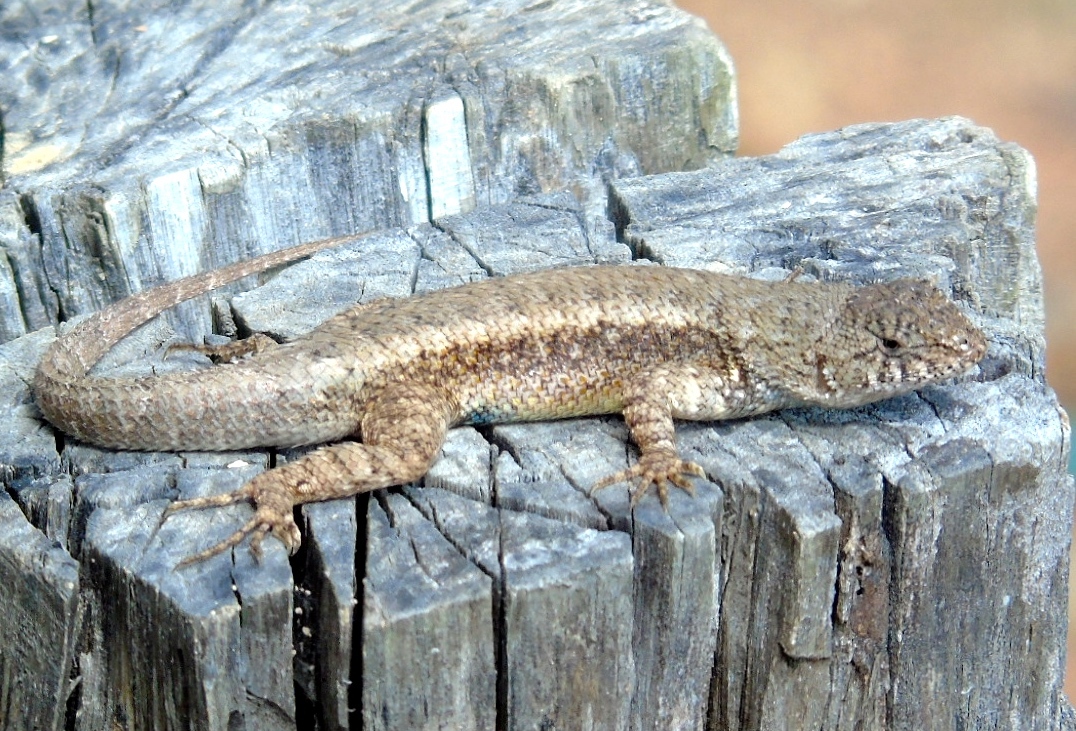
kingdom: Animalia
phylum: Chordata
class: Squamata
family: Phrynosomatidae
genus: Sceloporus
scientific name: Sceloporus nelsoni
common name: Nelson's spiny lizard
